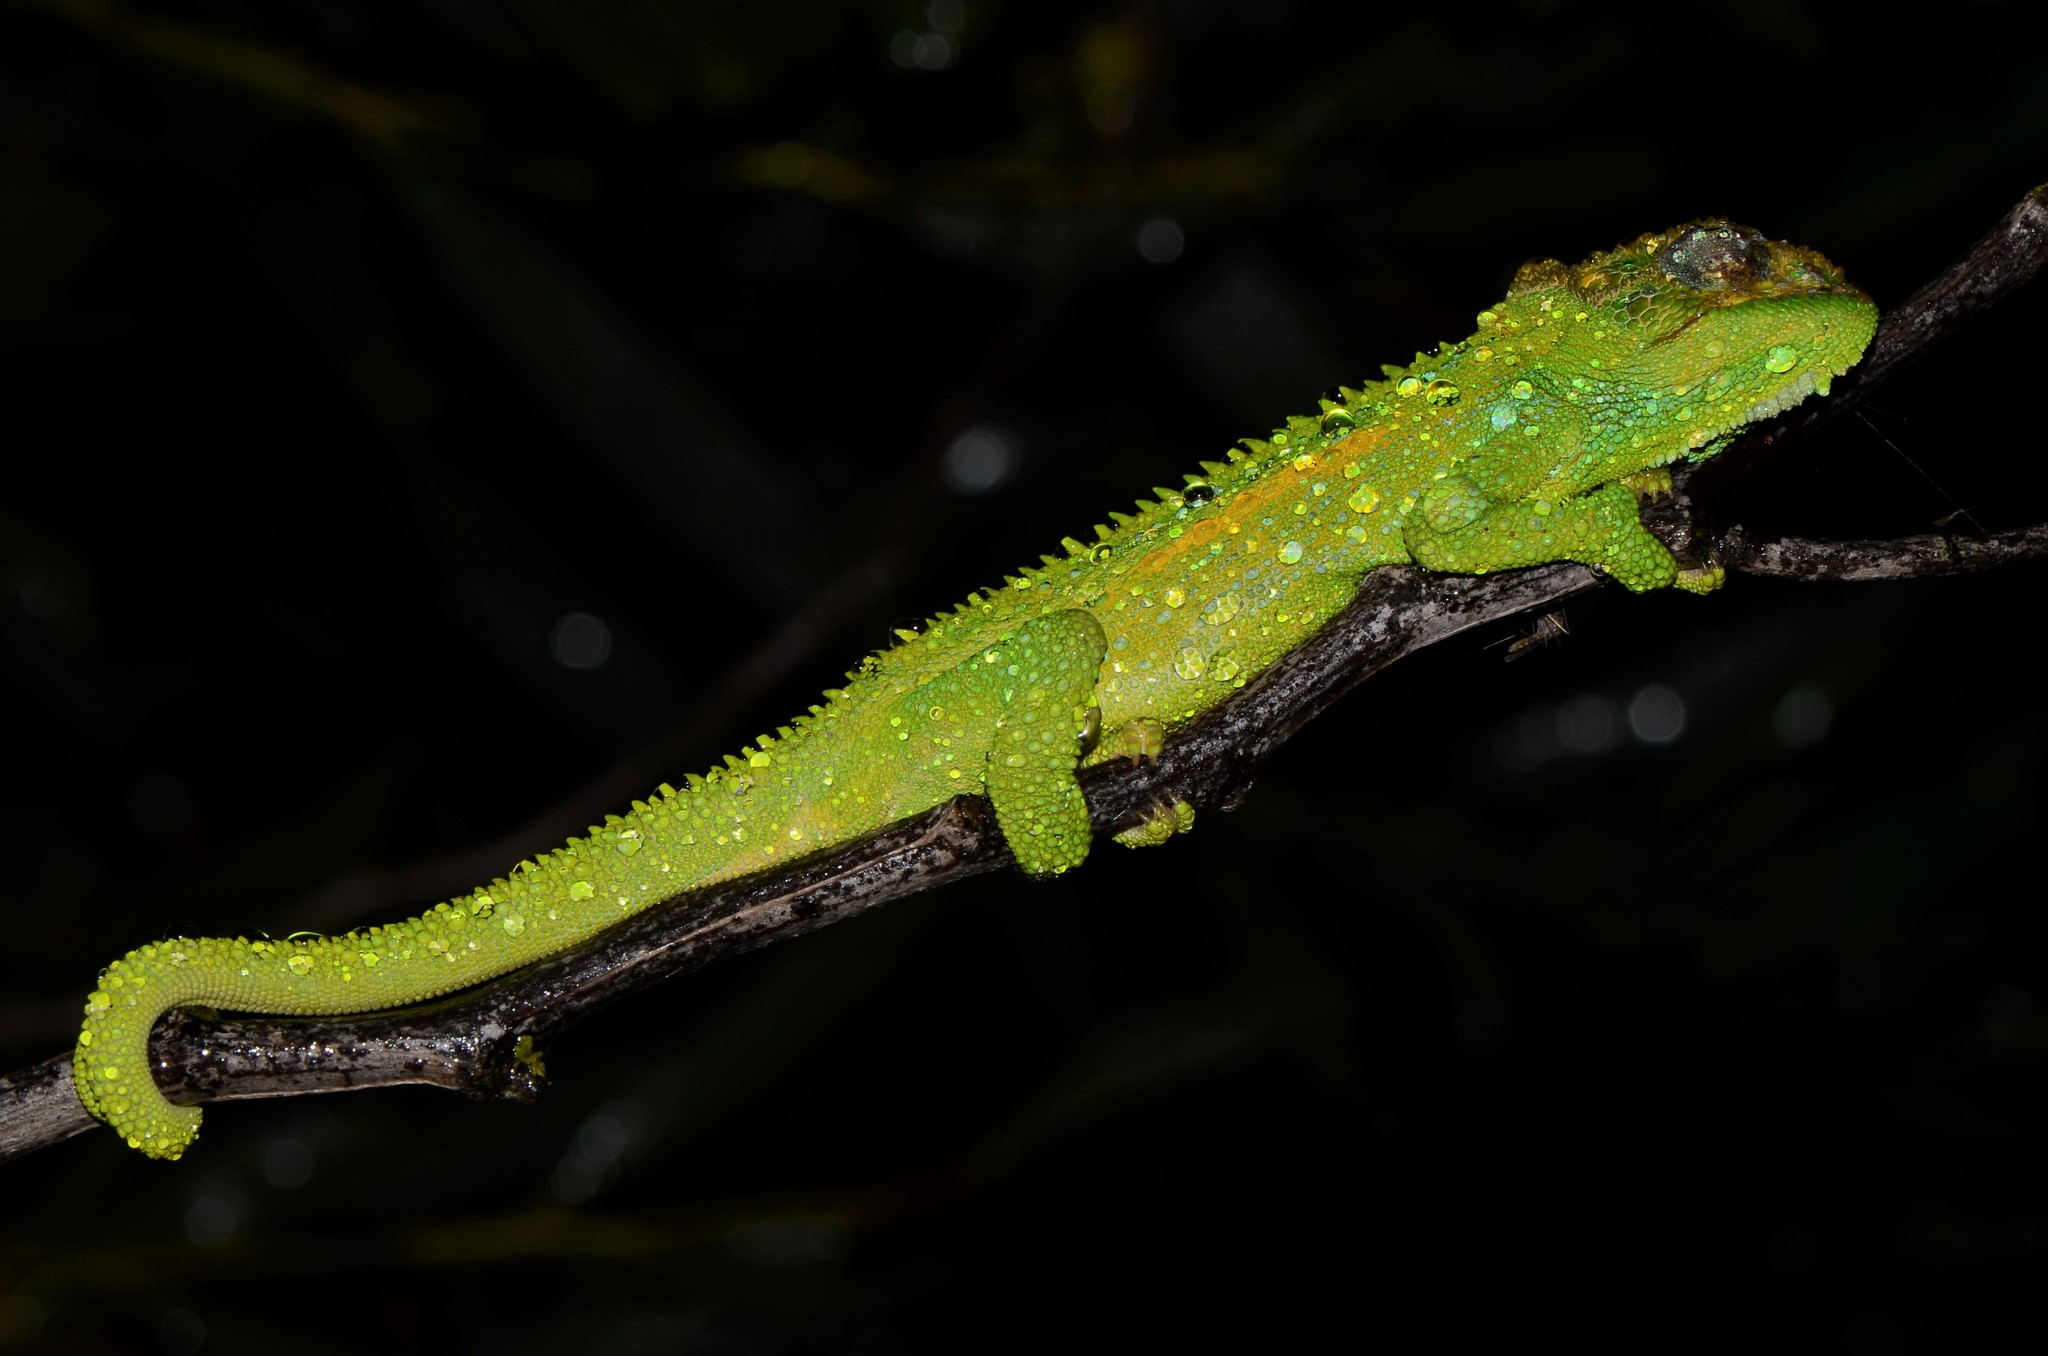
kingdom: Animalia
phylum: Chordata
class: Squamata
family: Chamaeleonidae
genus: Bradypodion
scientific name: Bradypodion pumilum
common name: Cape dwarf chameleon
